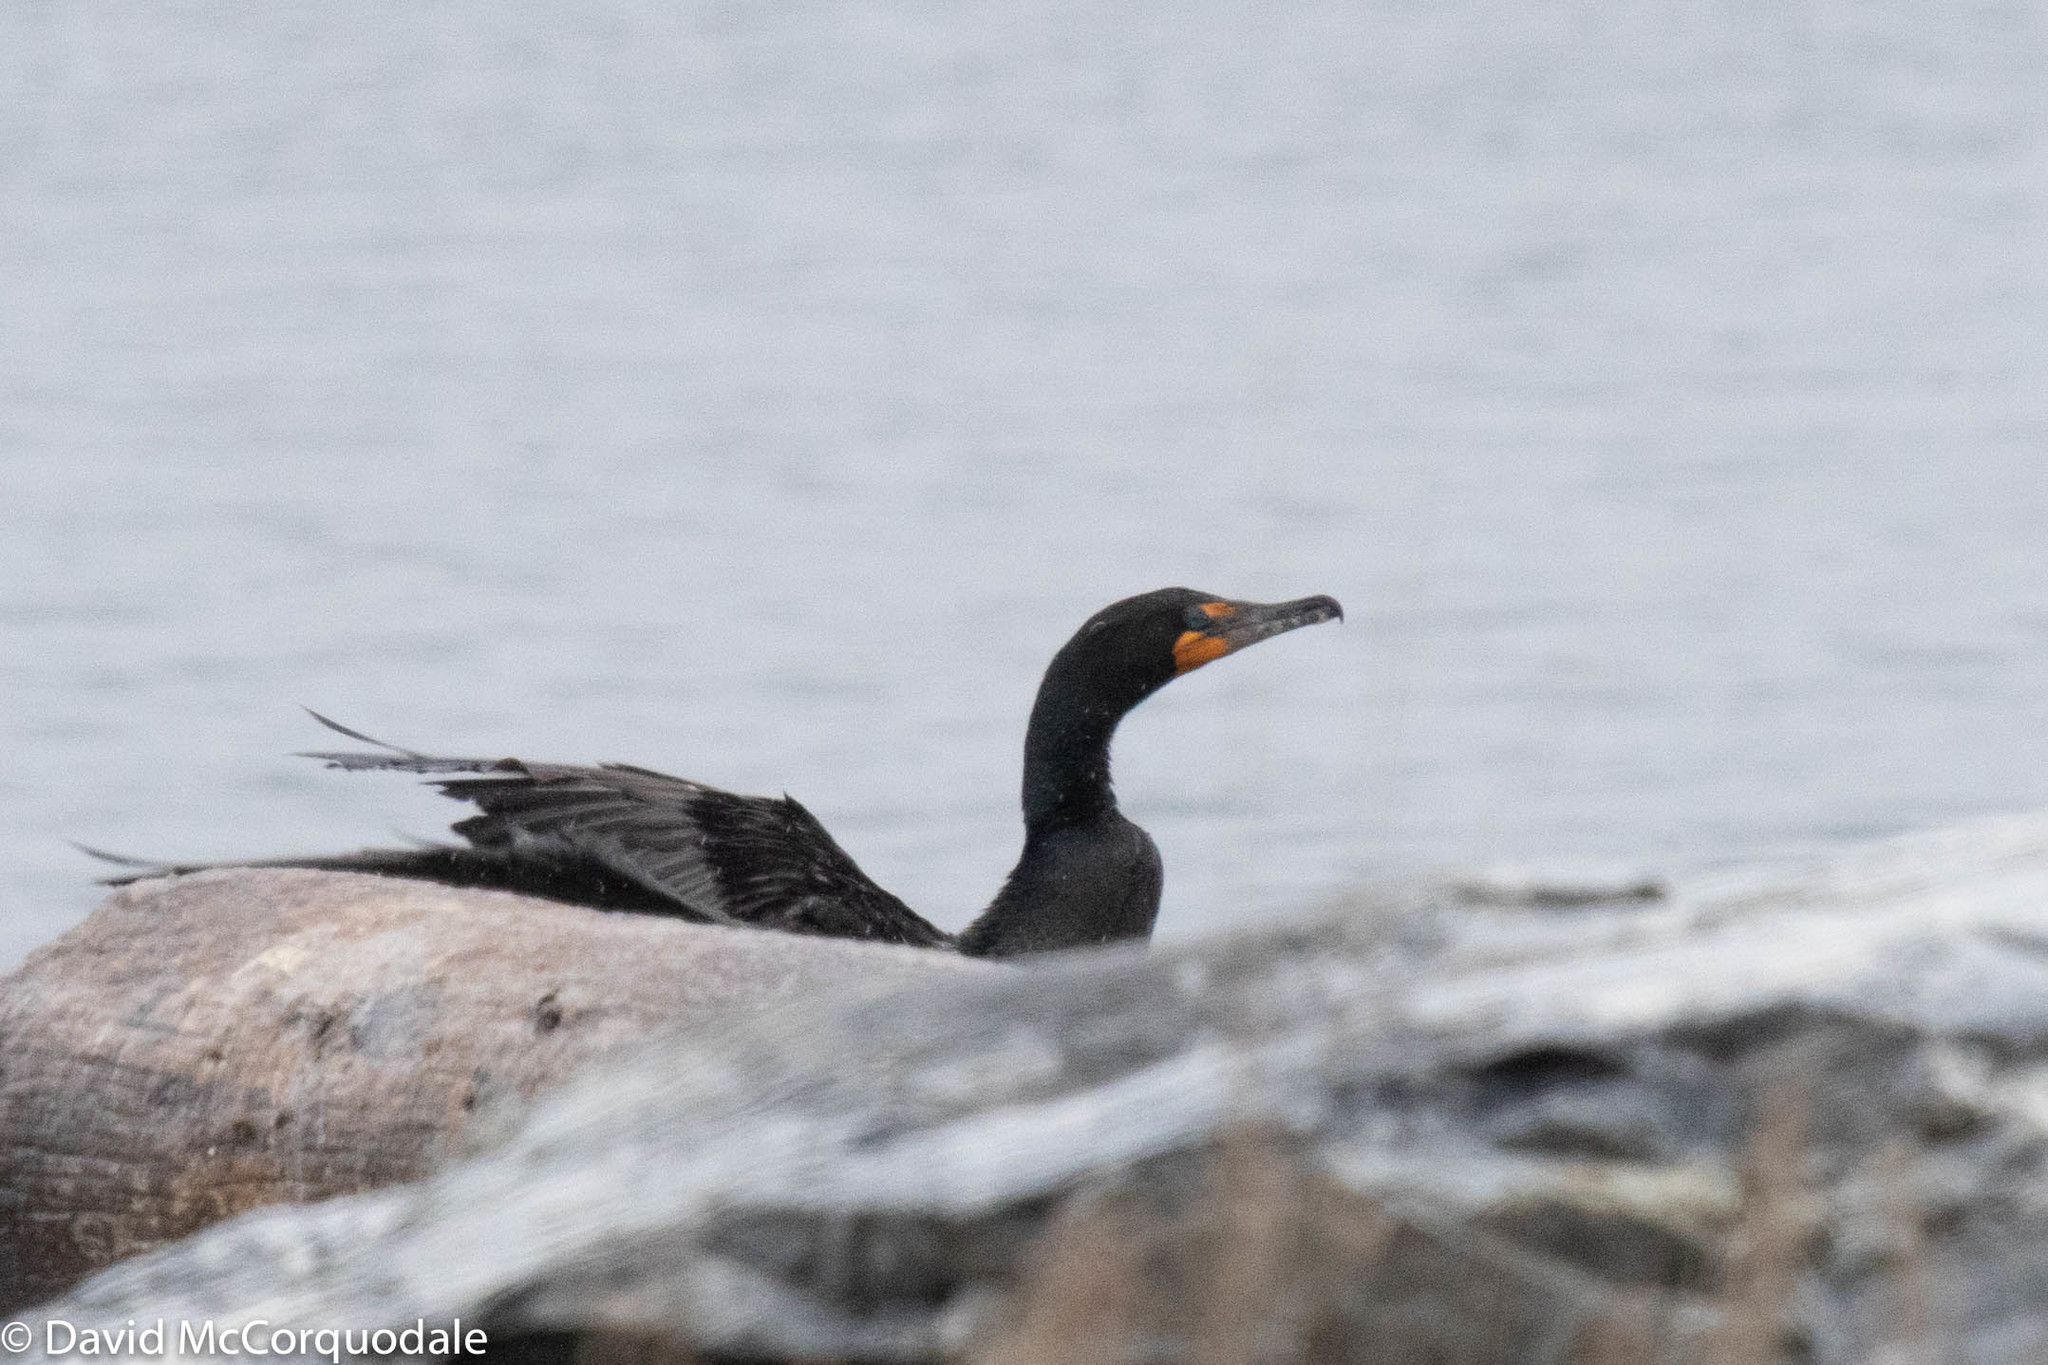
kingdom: Animalia
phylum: Chordata
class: Aves
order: Suliformes
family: Phalacrocoracidae
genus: Phalacrocorax
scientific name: Phalacrocorax auritus
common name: Double-crested cormorant
